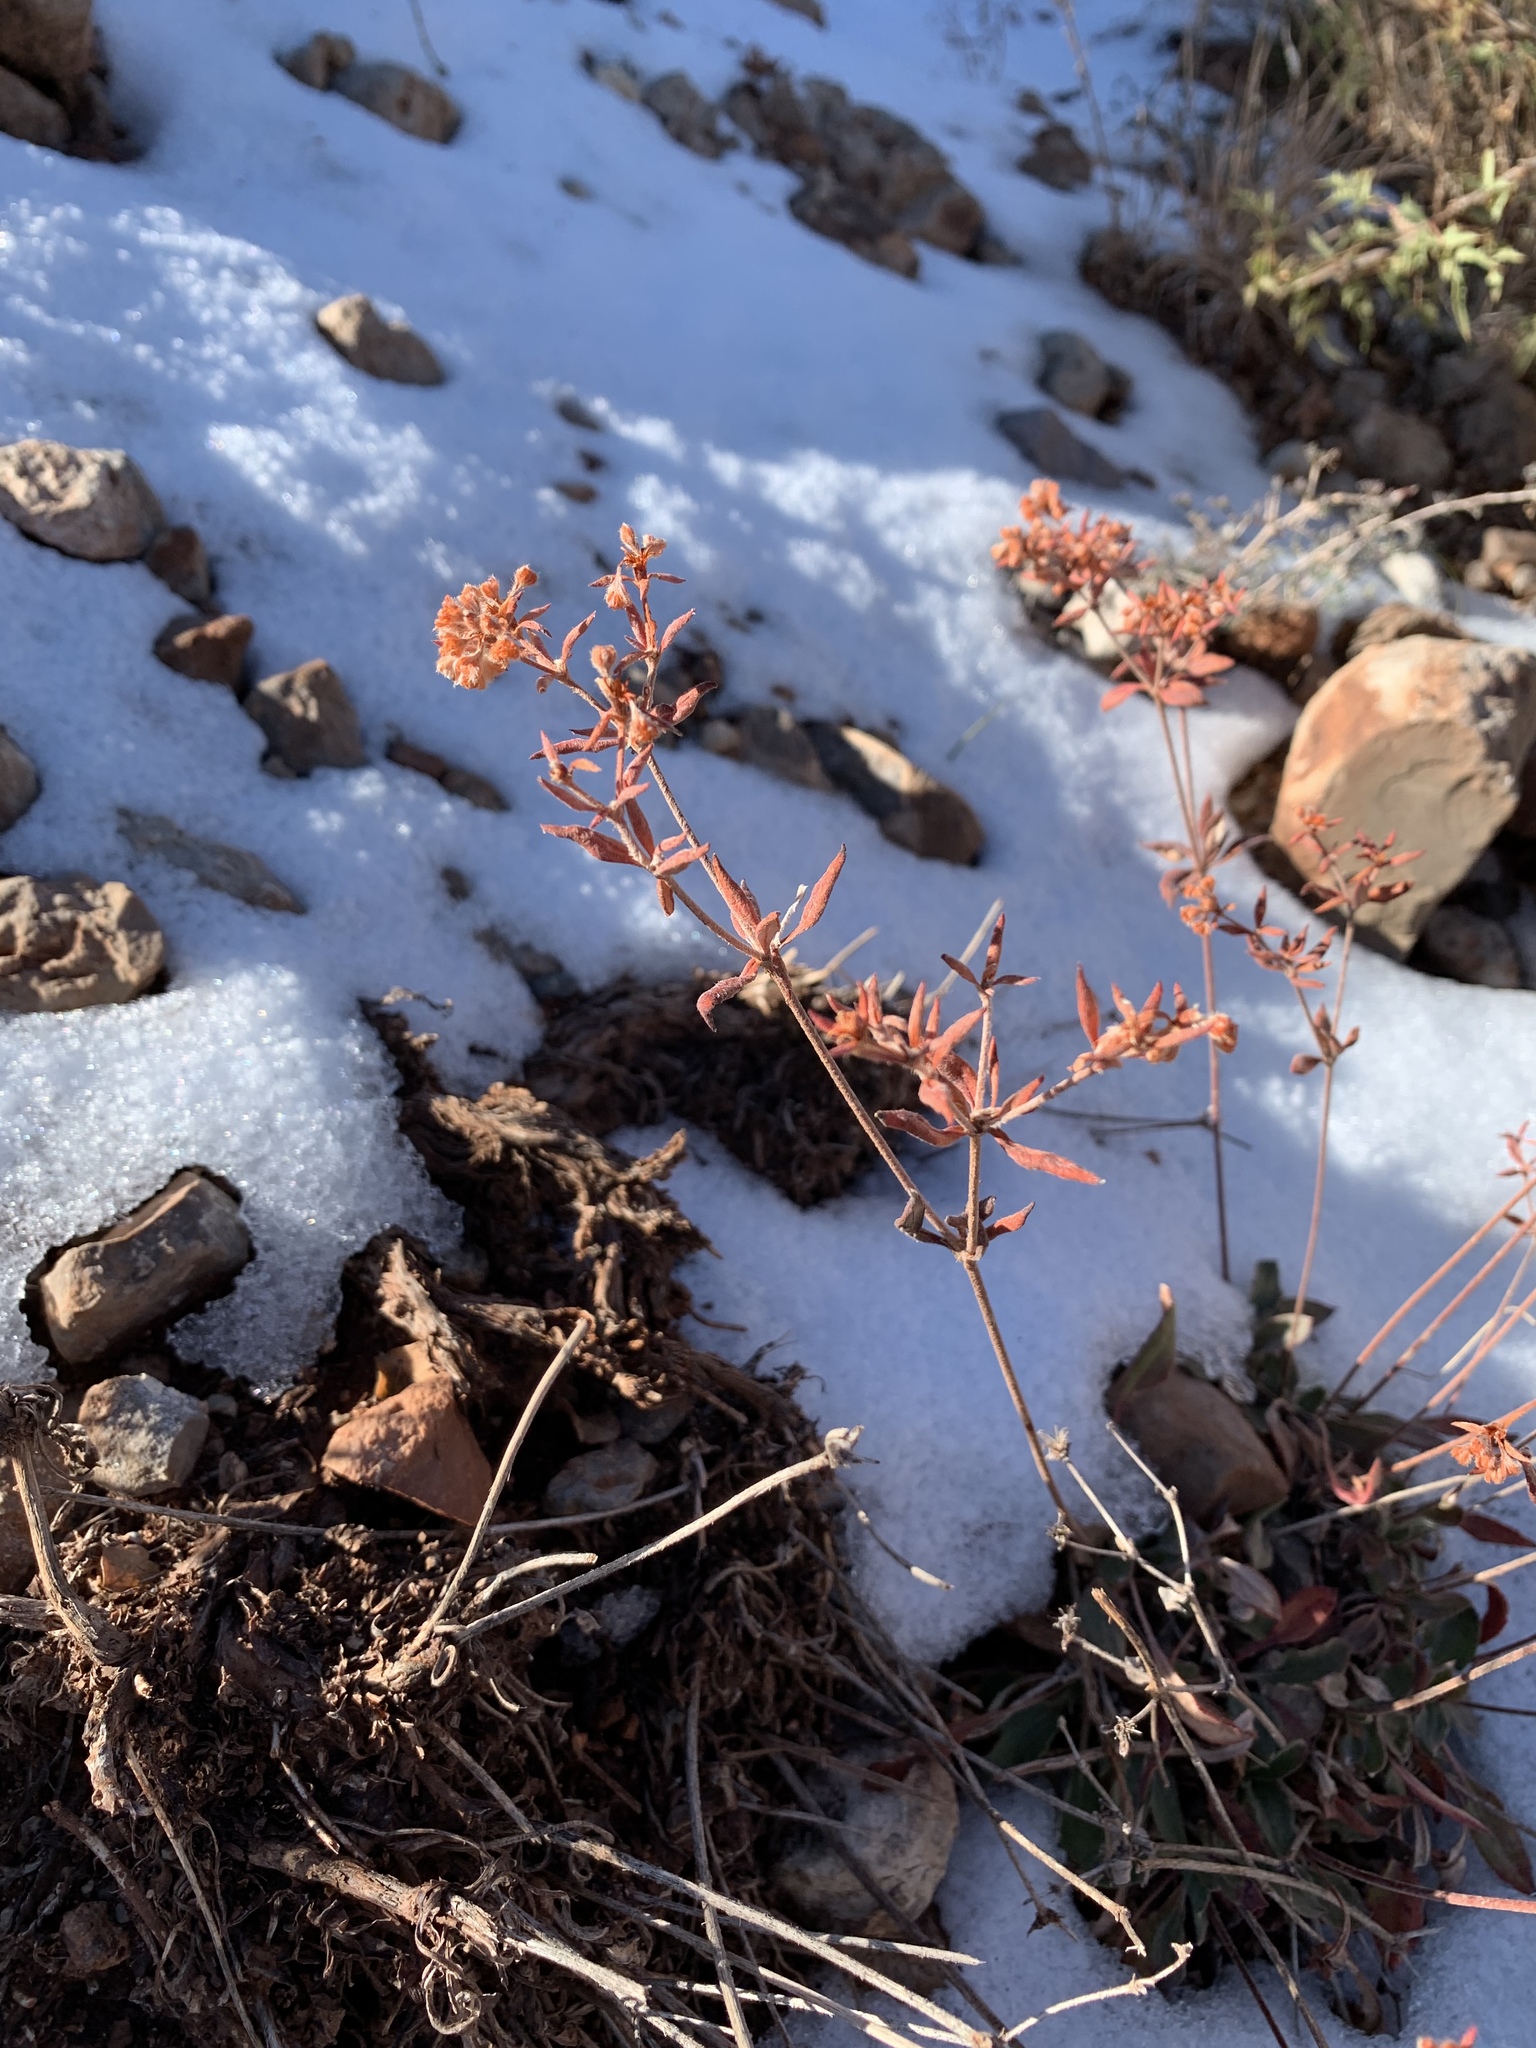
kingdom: Plantae
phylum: Tracheophyta
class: Magnoliopsida
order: Caryophyllales
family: Polygonaceae
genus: Eriogonum
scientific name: Eriogonum wootonii
